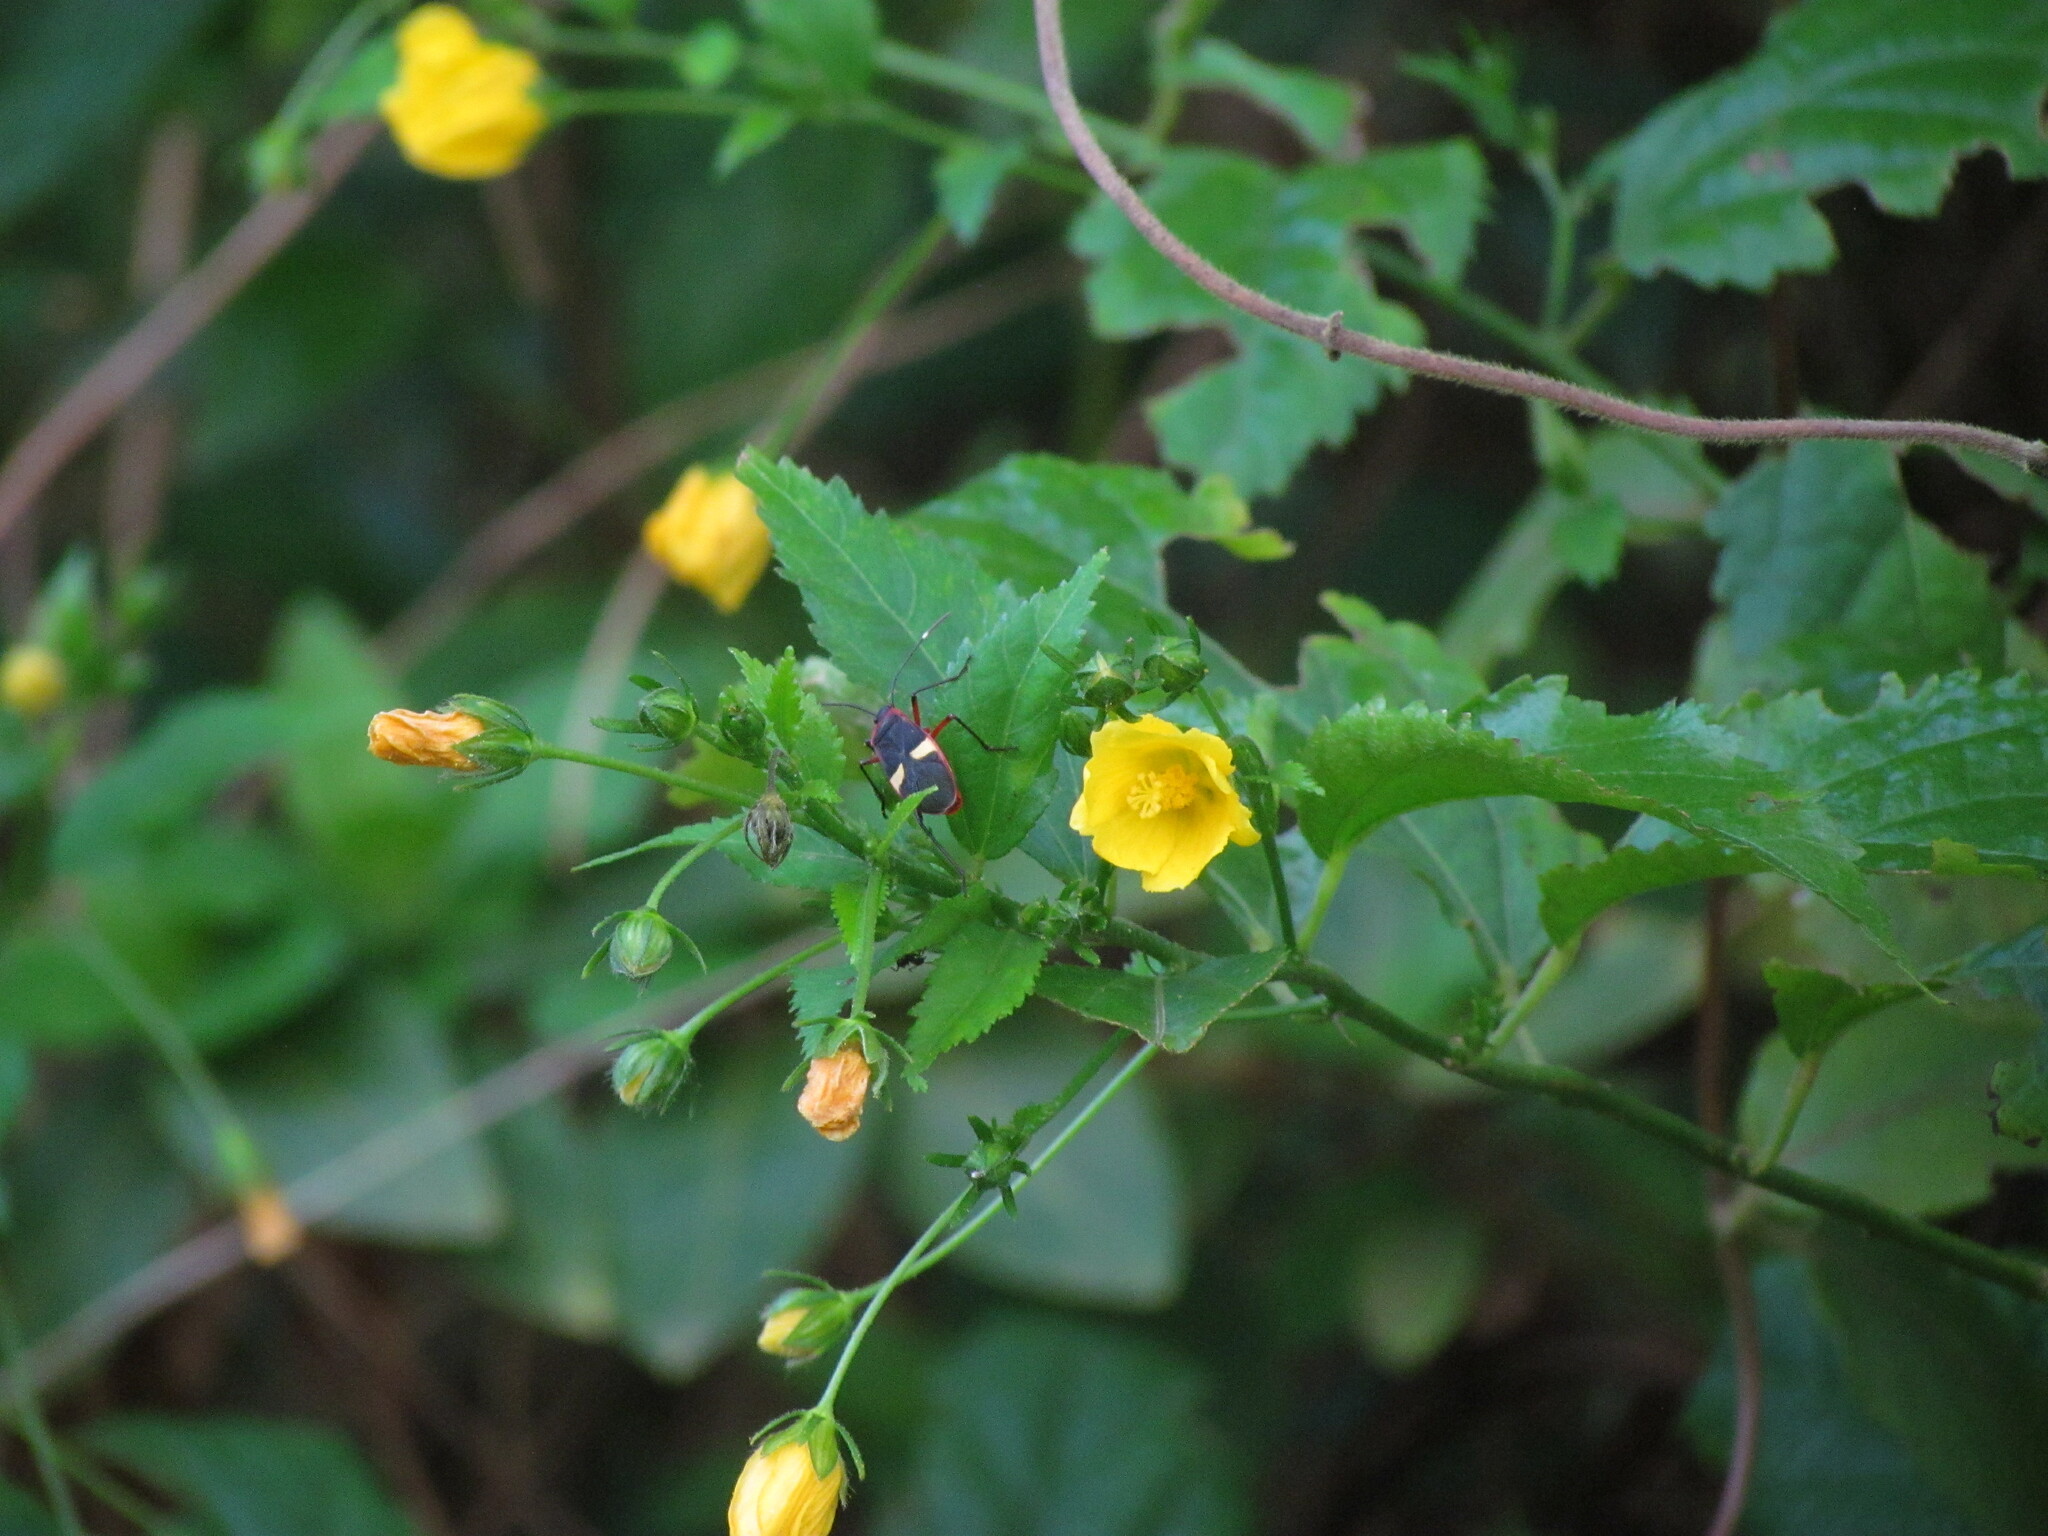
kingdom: Animalia
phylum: Arthropoda
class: Insecta
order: Hemiptera
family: Pyrrhocoridae
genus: Dysdercus
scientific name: Dysdercus albofasciatus
